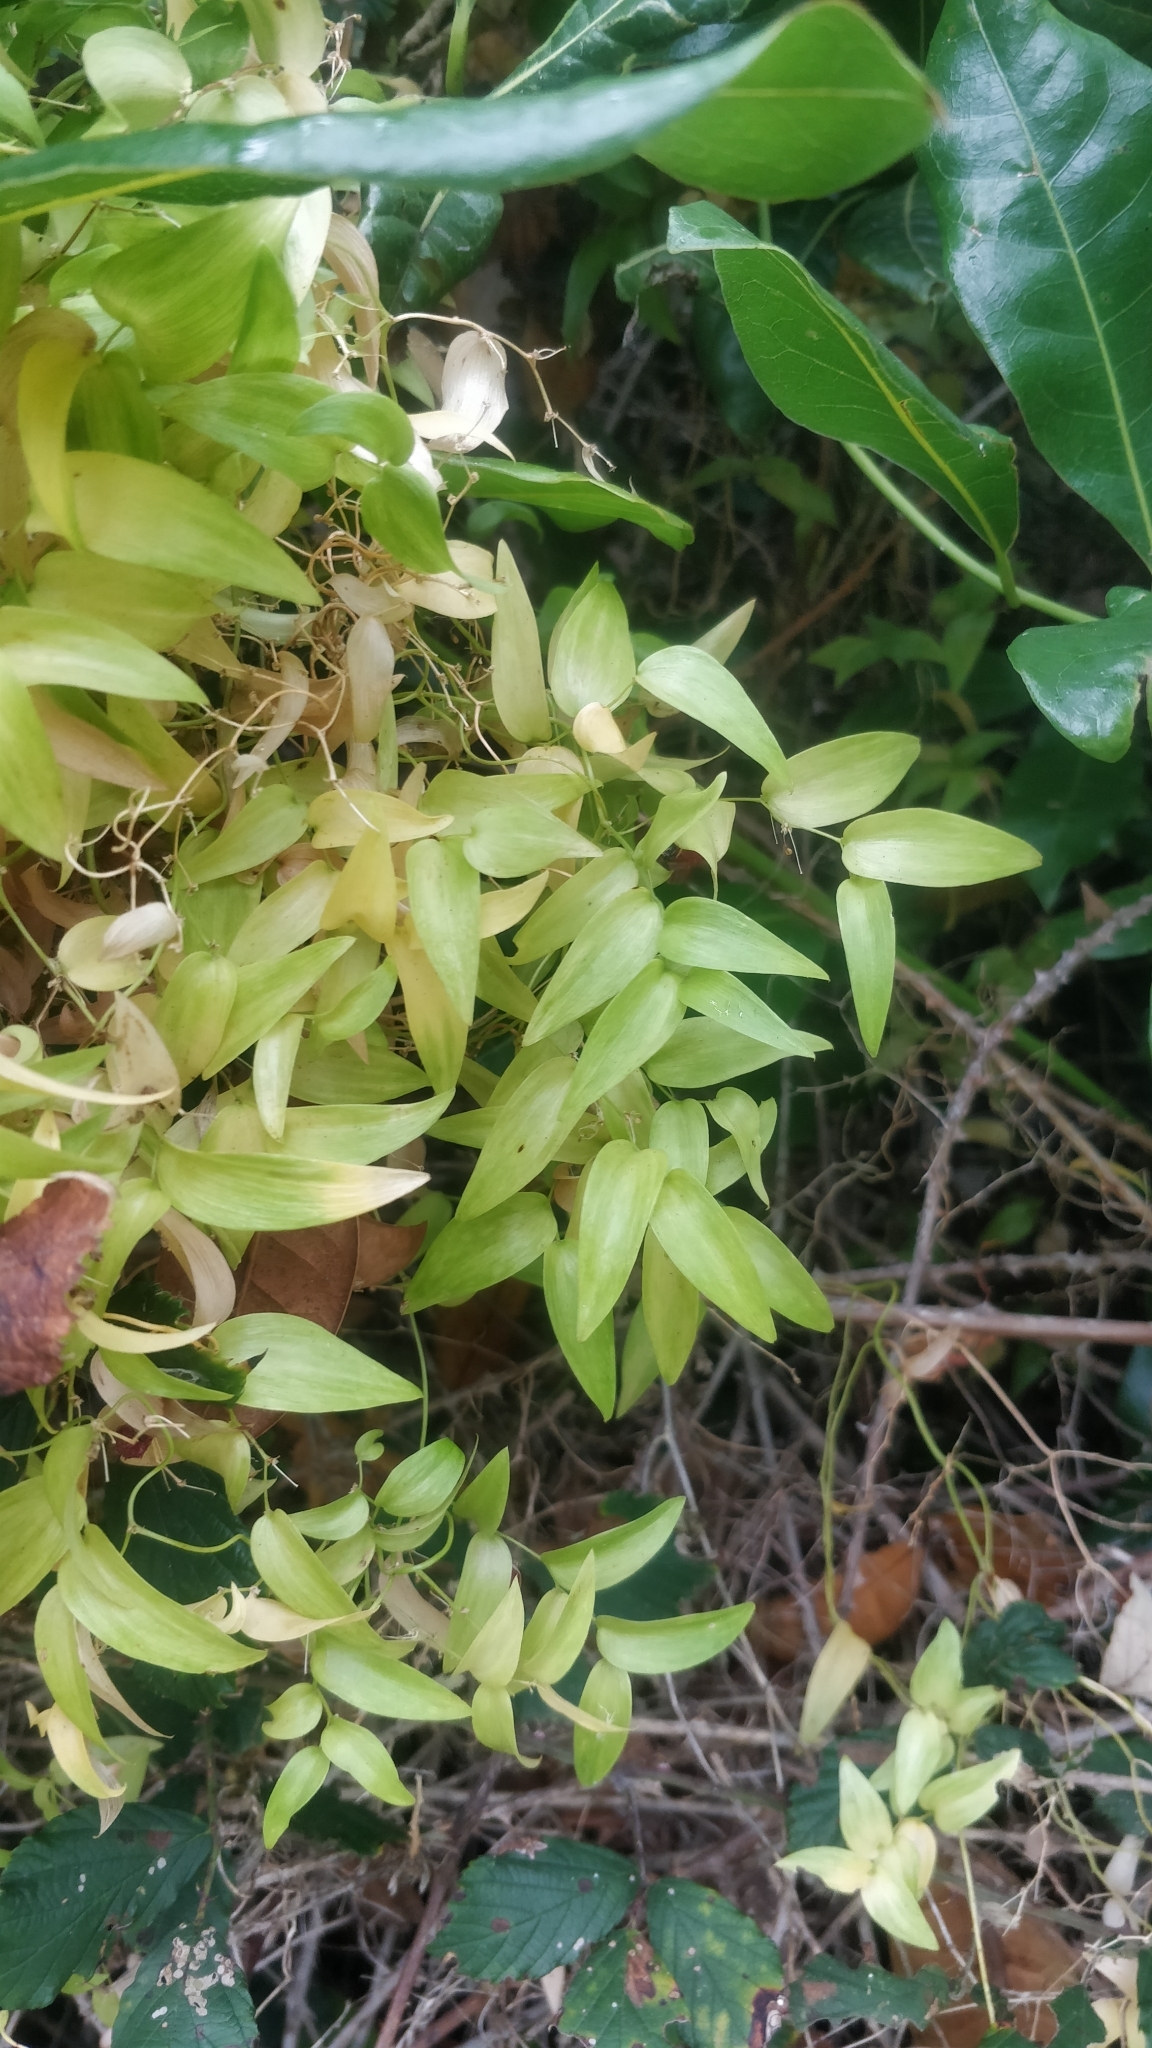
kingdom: Plantae
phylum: Tracheophyta
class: Liliopsida
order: Asparagales
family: Asparagaceae
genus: Asparagus
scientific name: Asparagus asparagoides
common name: African asparagus fern
